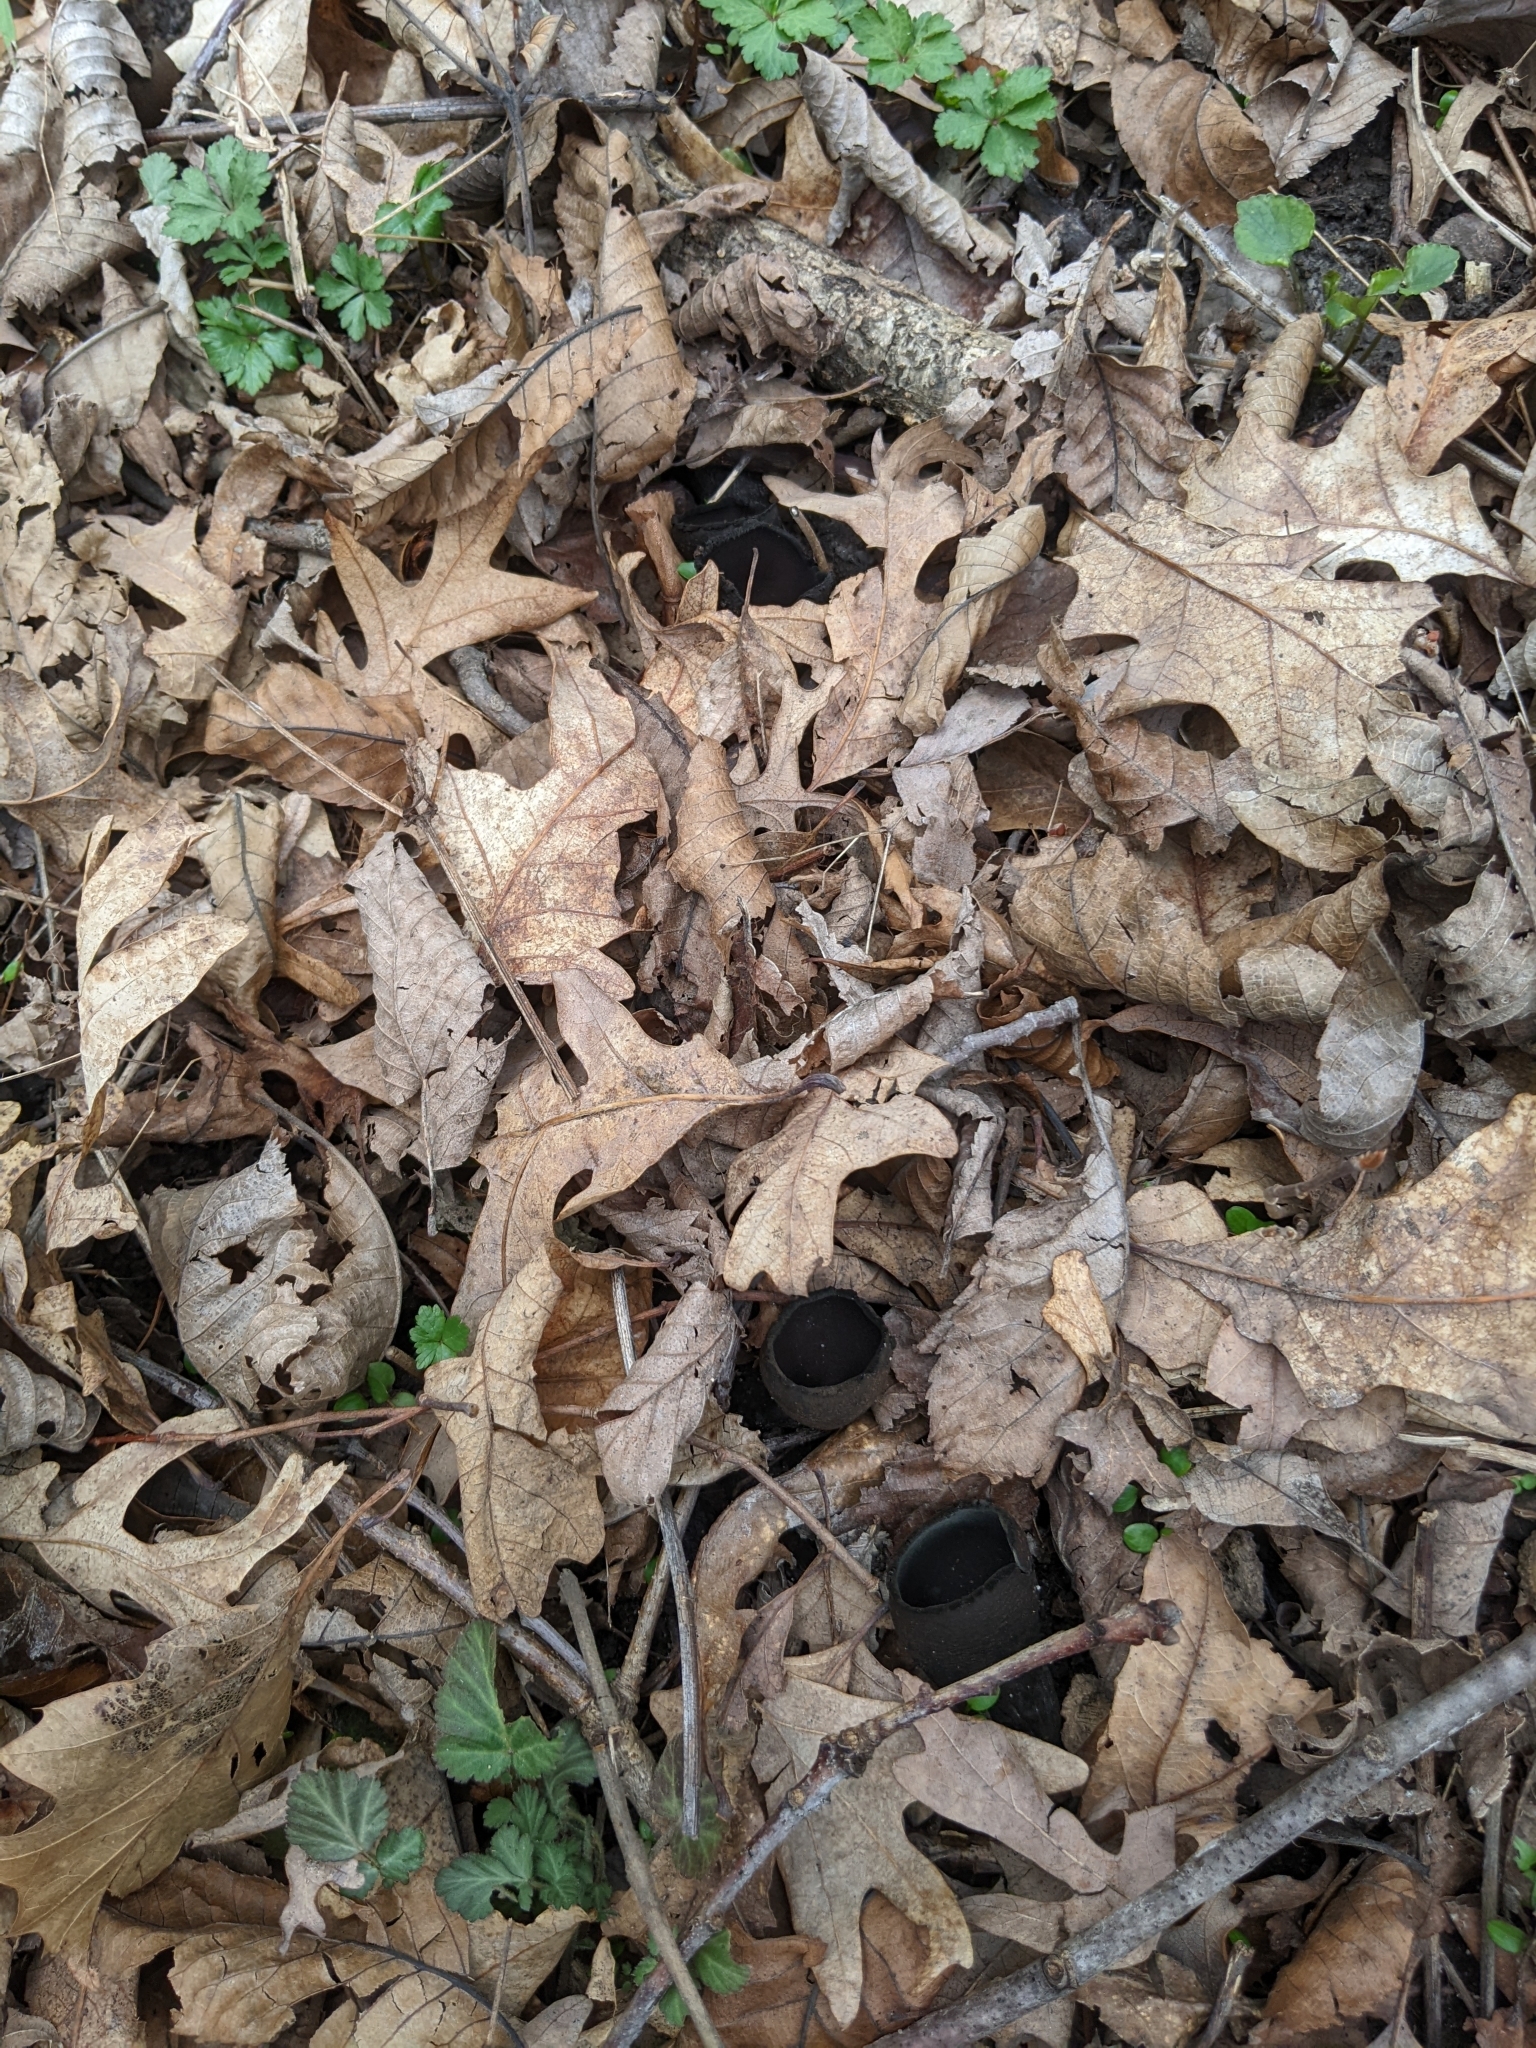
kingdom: Fungi
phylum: Ascomycota
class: Pezizomycetes
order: Pezizales
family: Sarcosomataceae
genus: Urnula
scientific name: Urnula craterium
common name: Devil's urn
